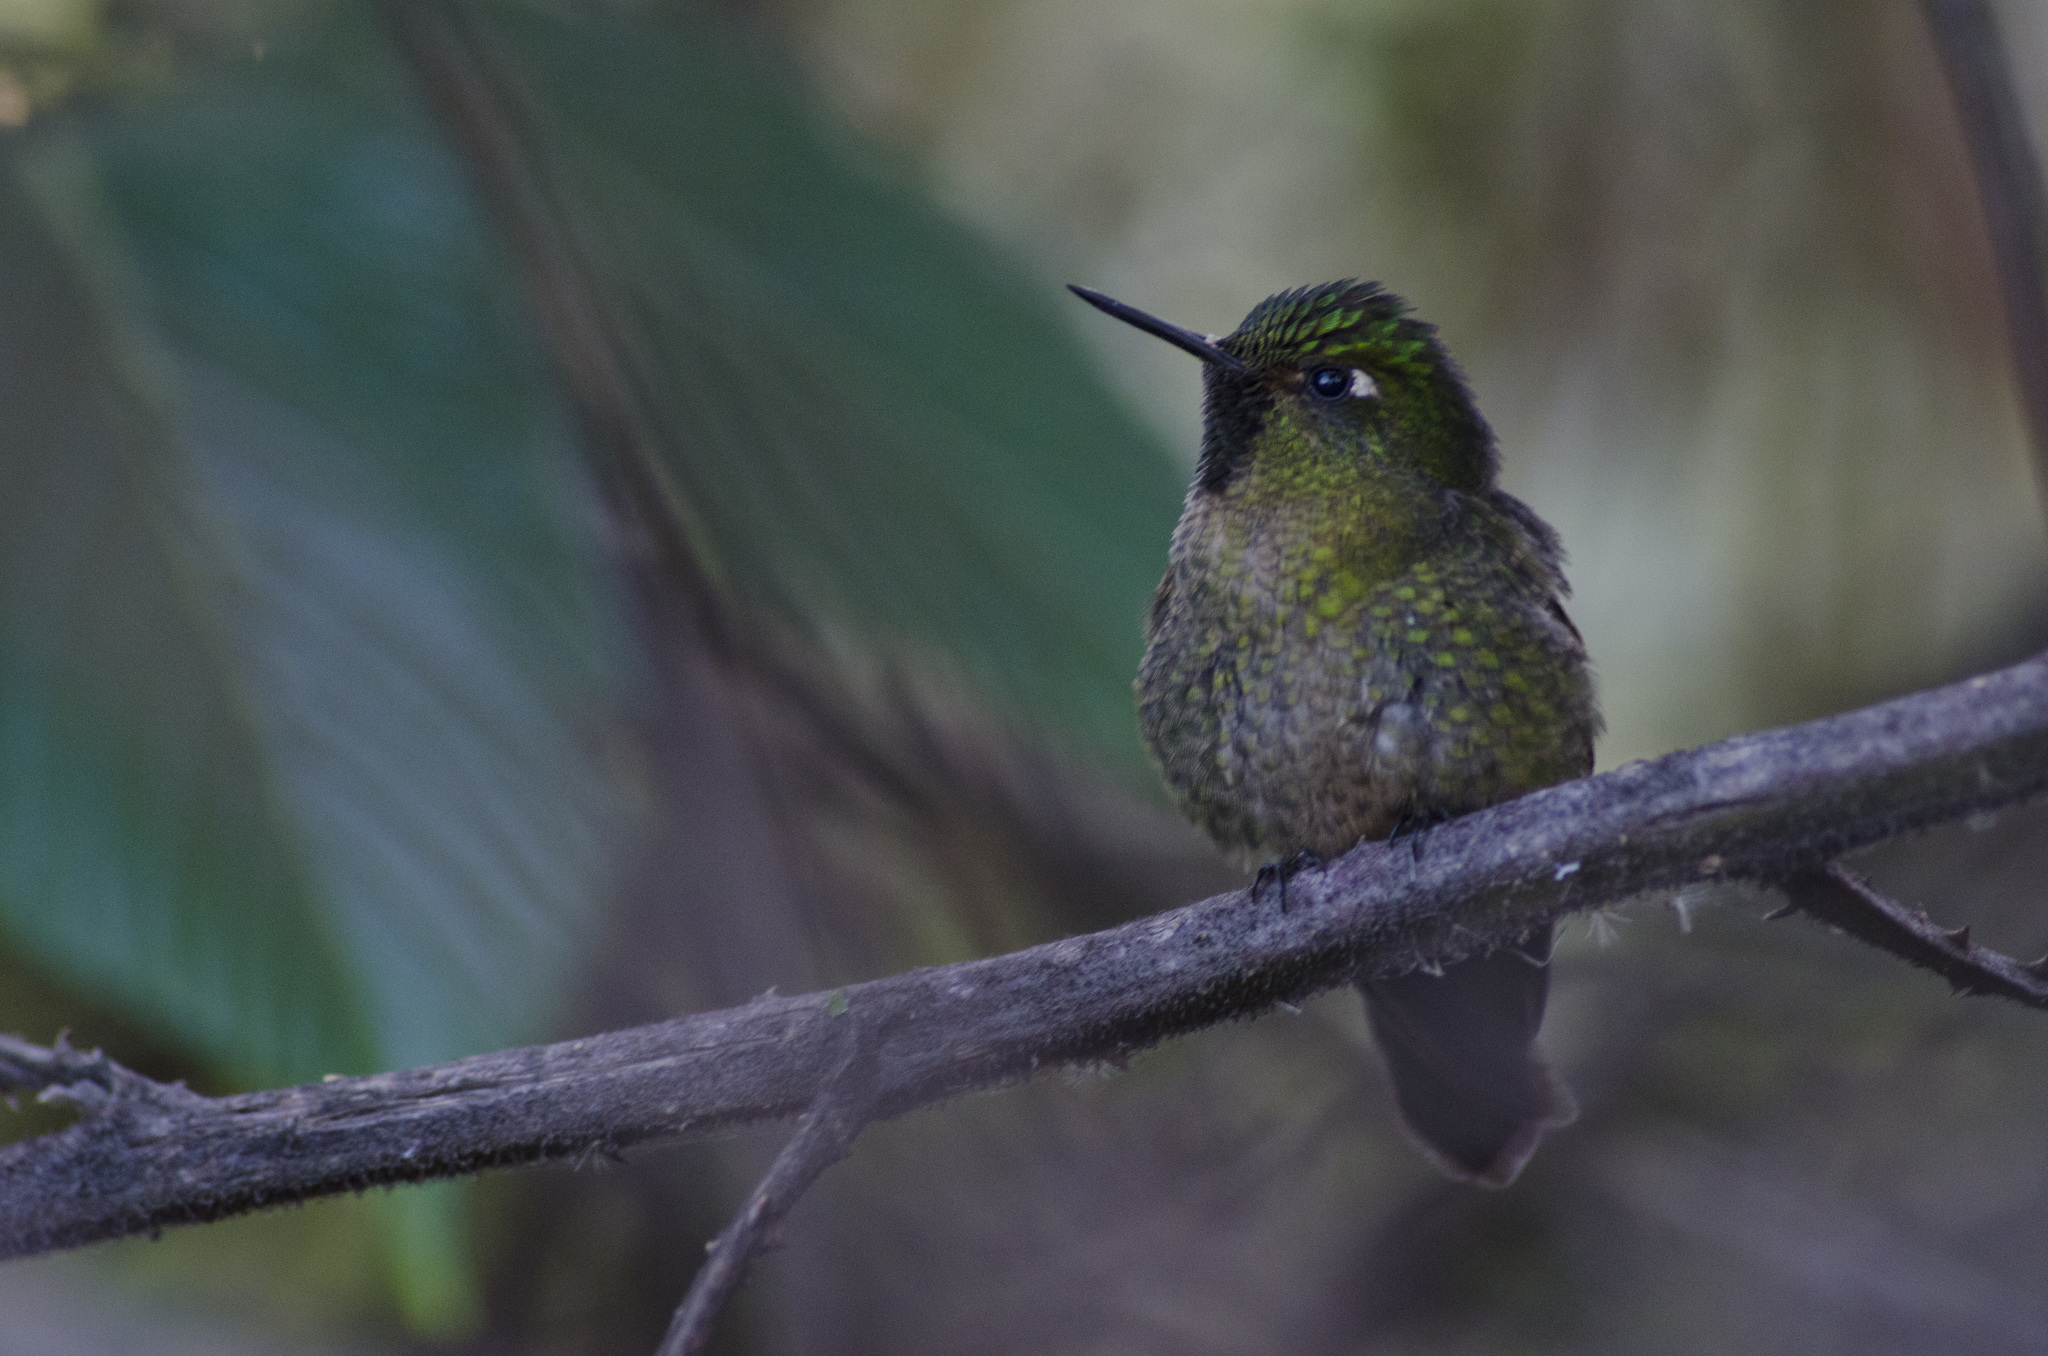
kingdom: Animalia
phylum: Chordata
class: Aves
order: Apodiformes
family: Trochilidae
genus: Metallura
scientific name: Metallura tyrianthina
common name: Tyrian metaltail
